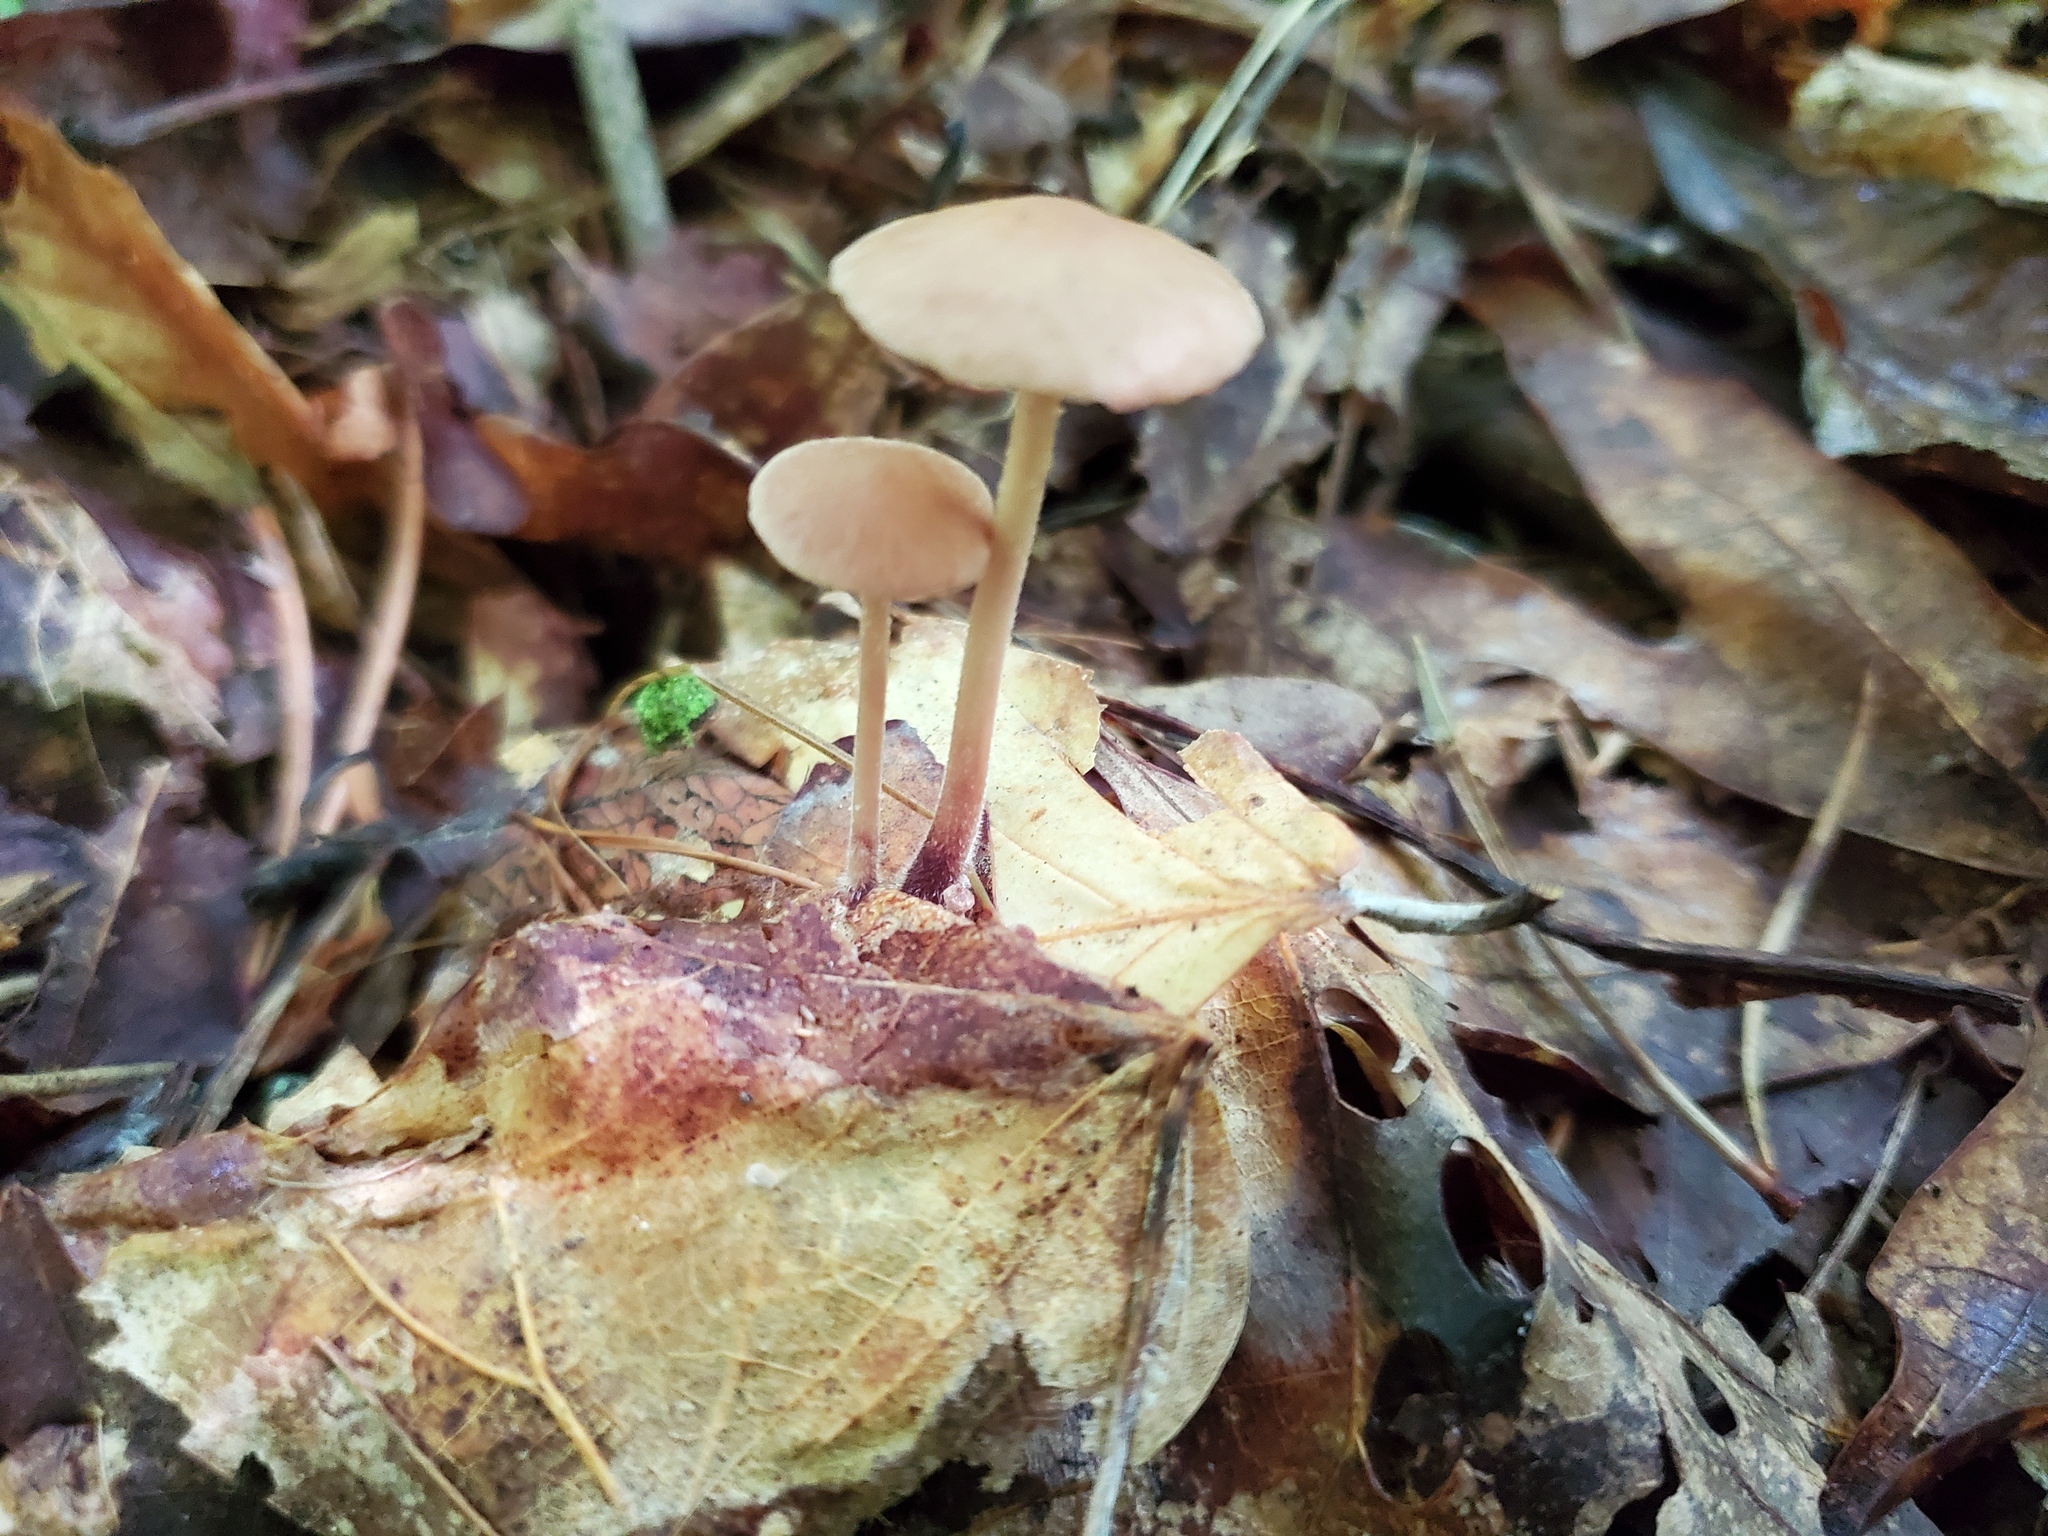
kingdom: Fungi
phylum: Basidiomycota
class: Agaricomycetes
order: Agaricales
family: Omphalotaceae
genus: Collybiopsis
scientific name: Collybiopsis subnuda
